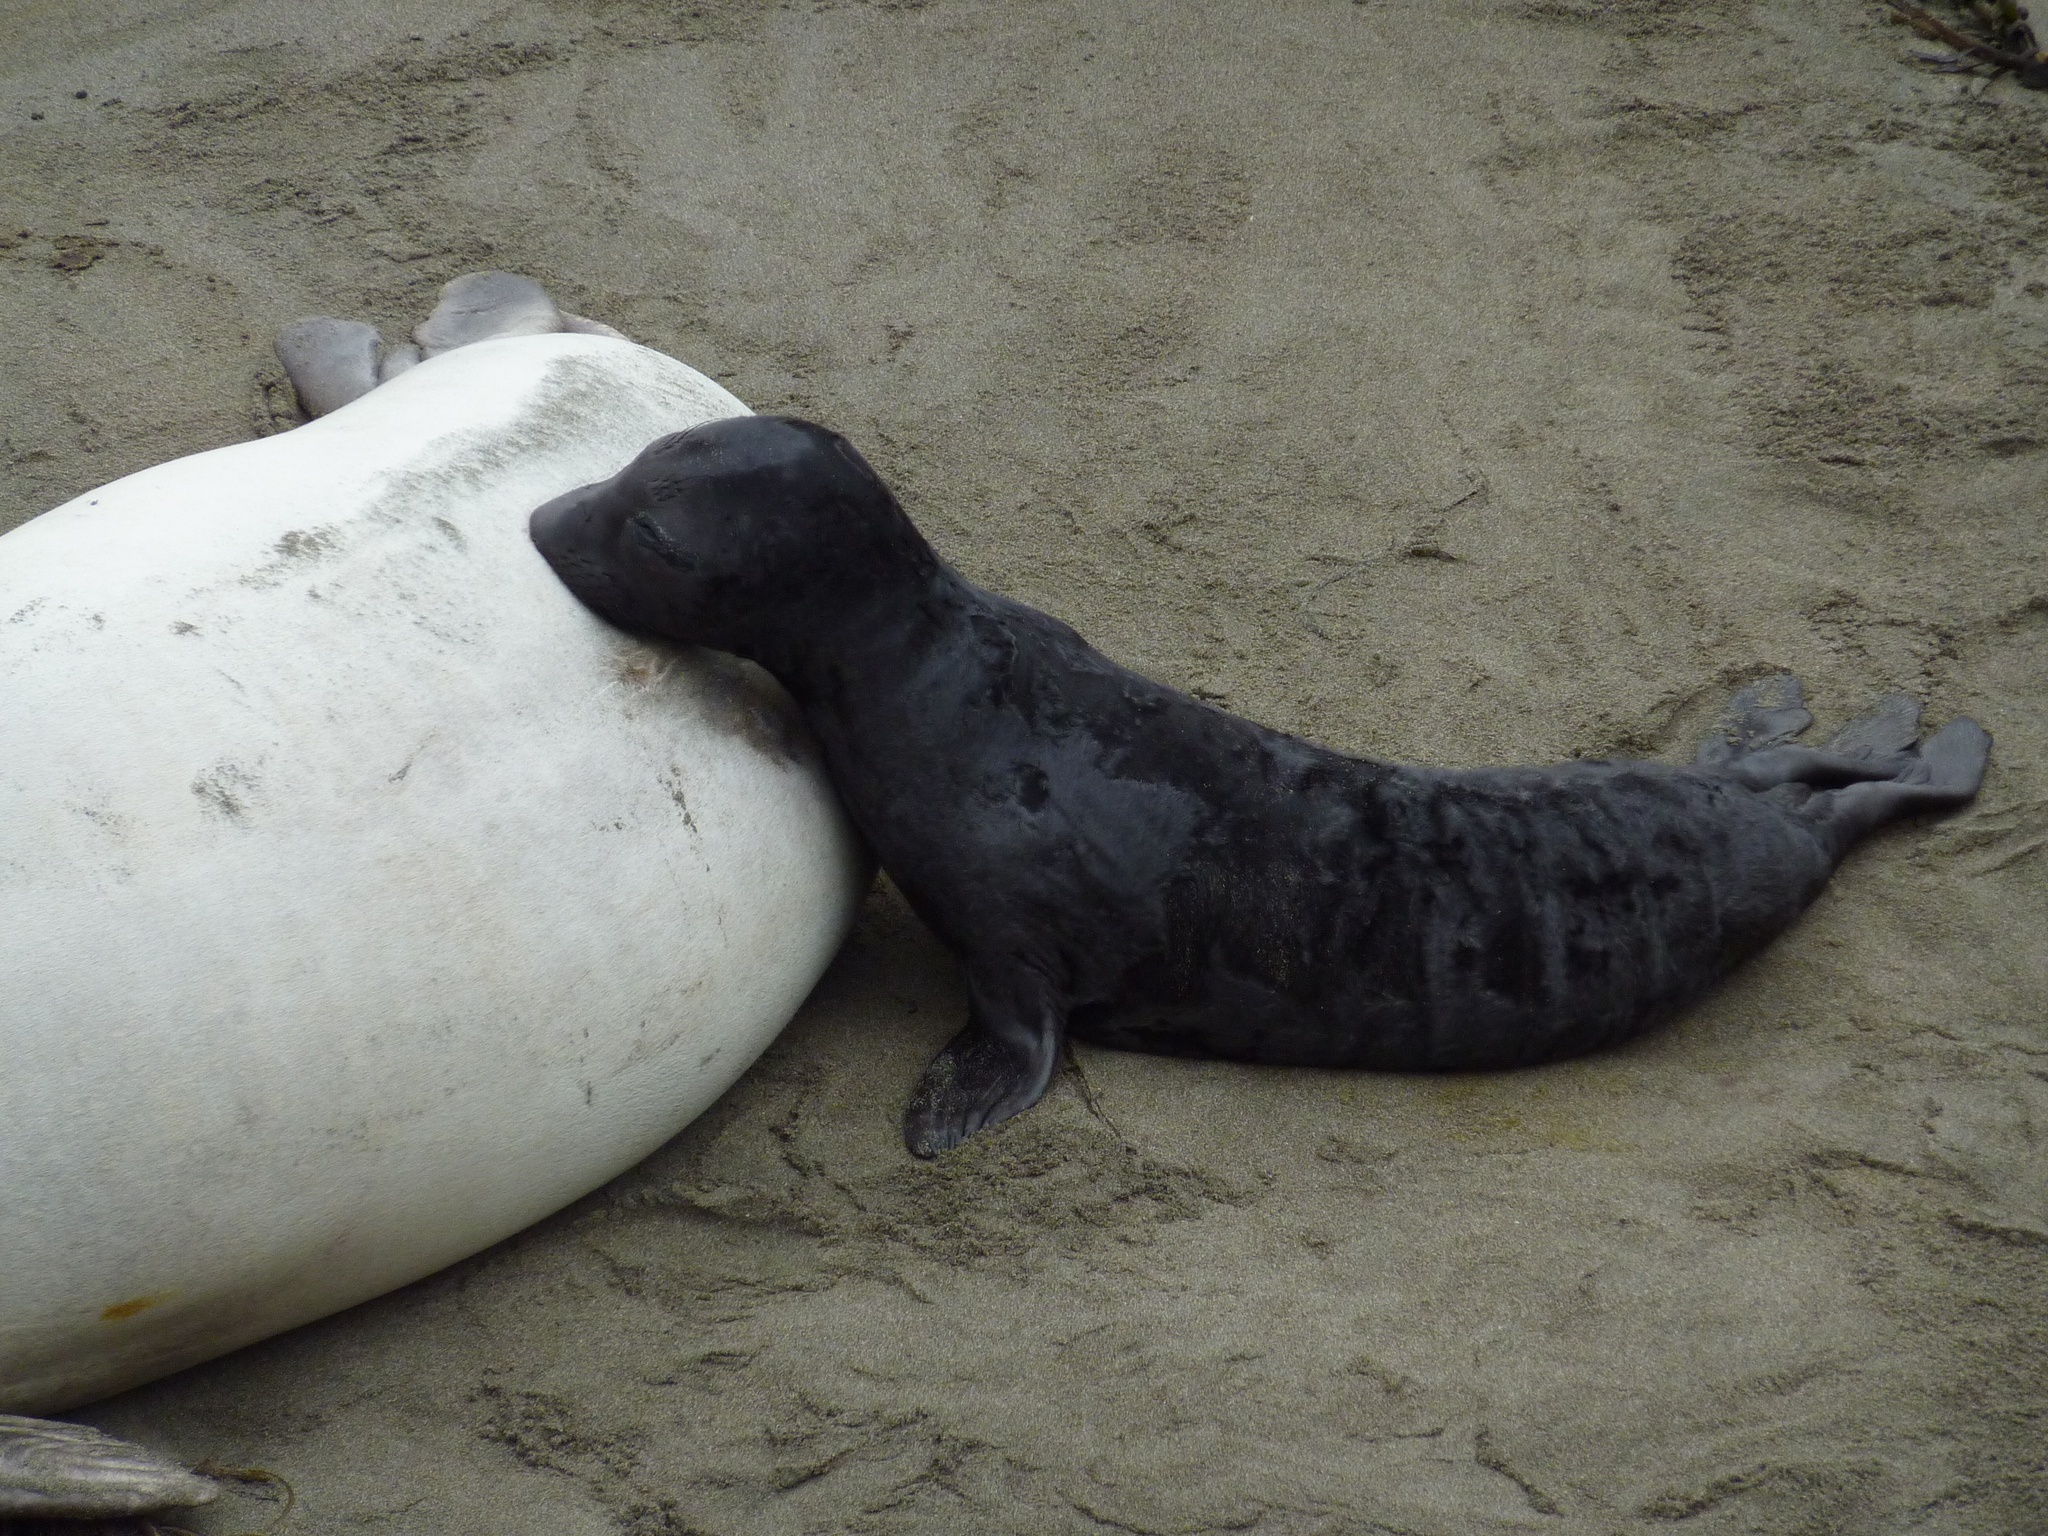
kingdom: Animalia
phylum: Chordata
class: Mammalia
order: Carnivora
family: Phocidae
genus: Mirounga
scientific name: Mirounga angustirostris
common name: Northern elephant seal
